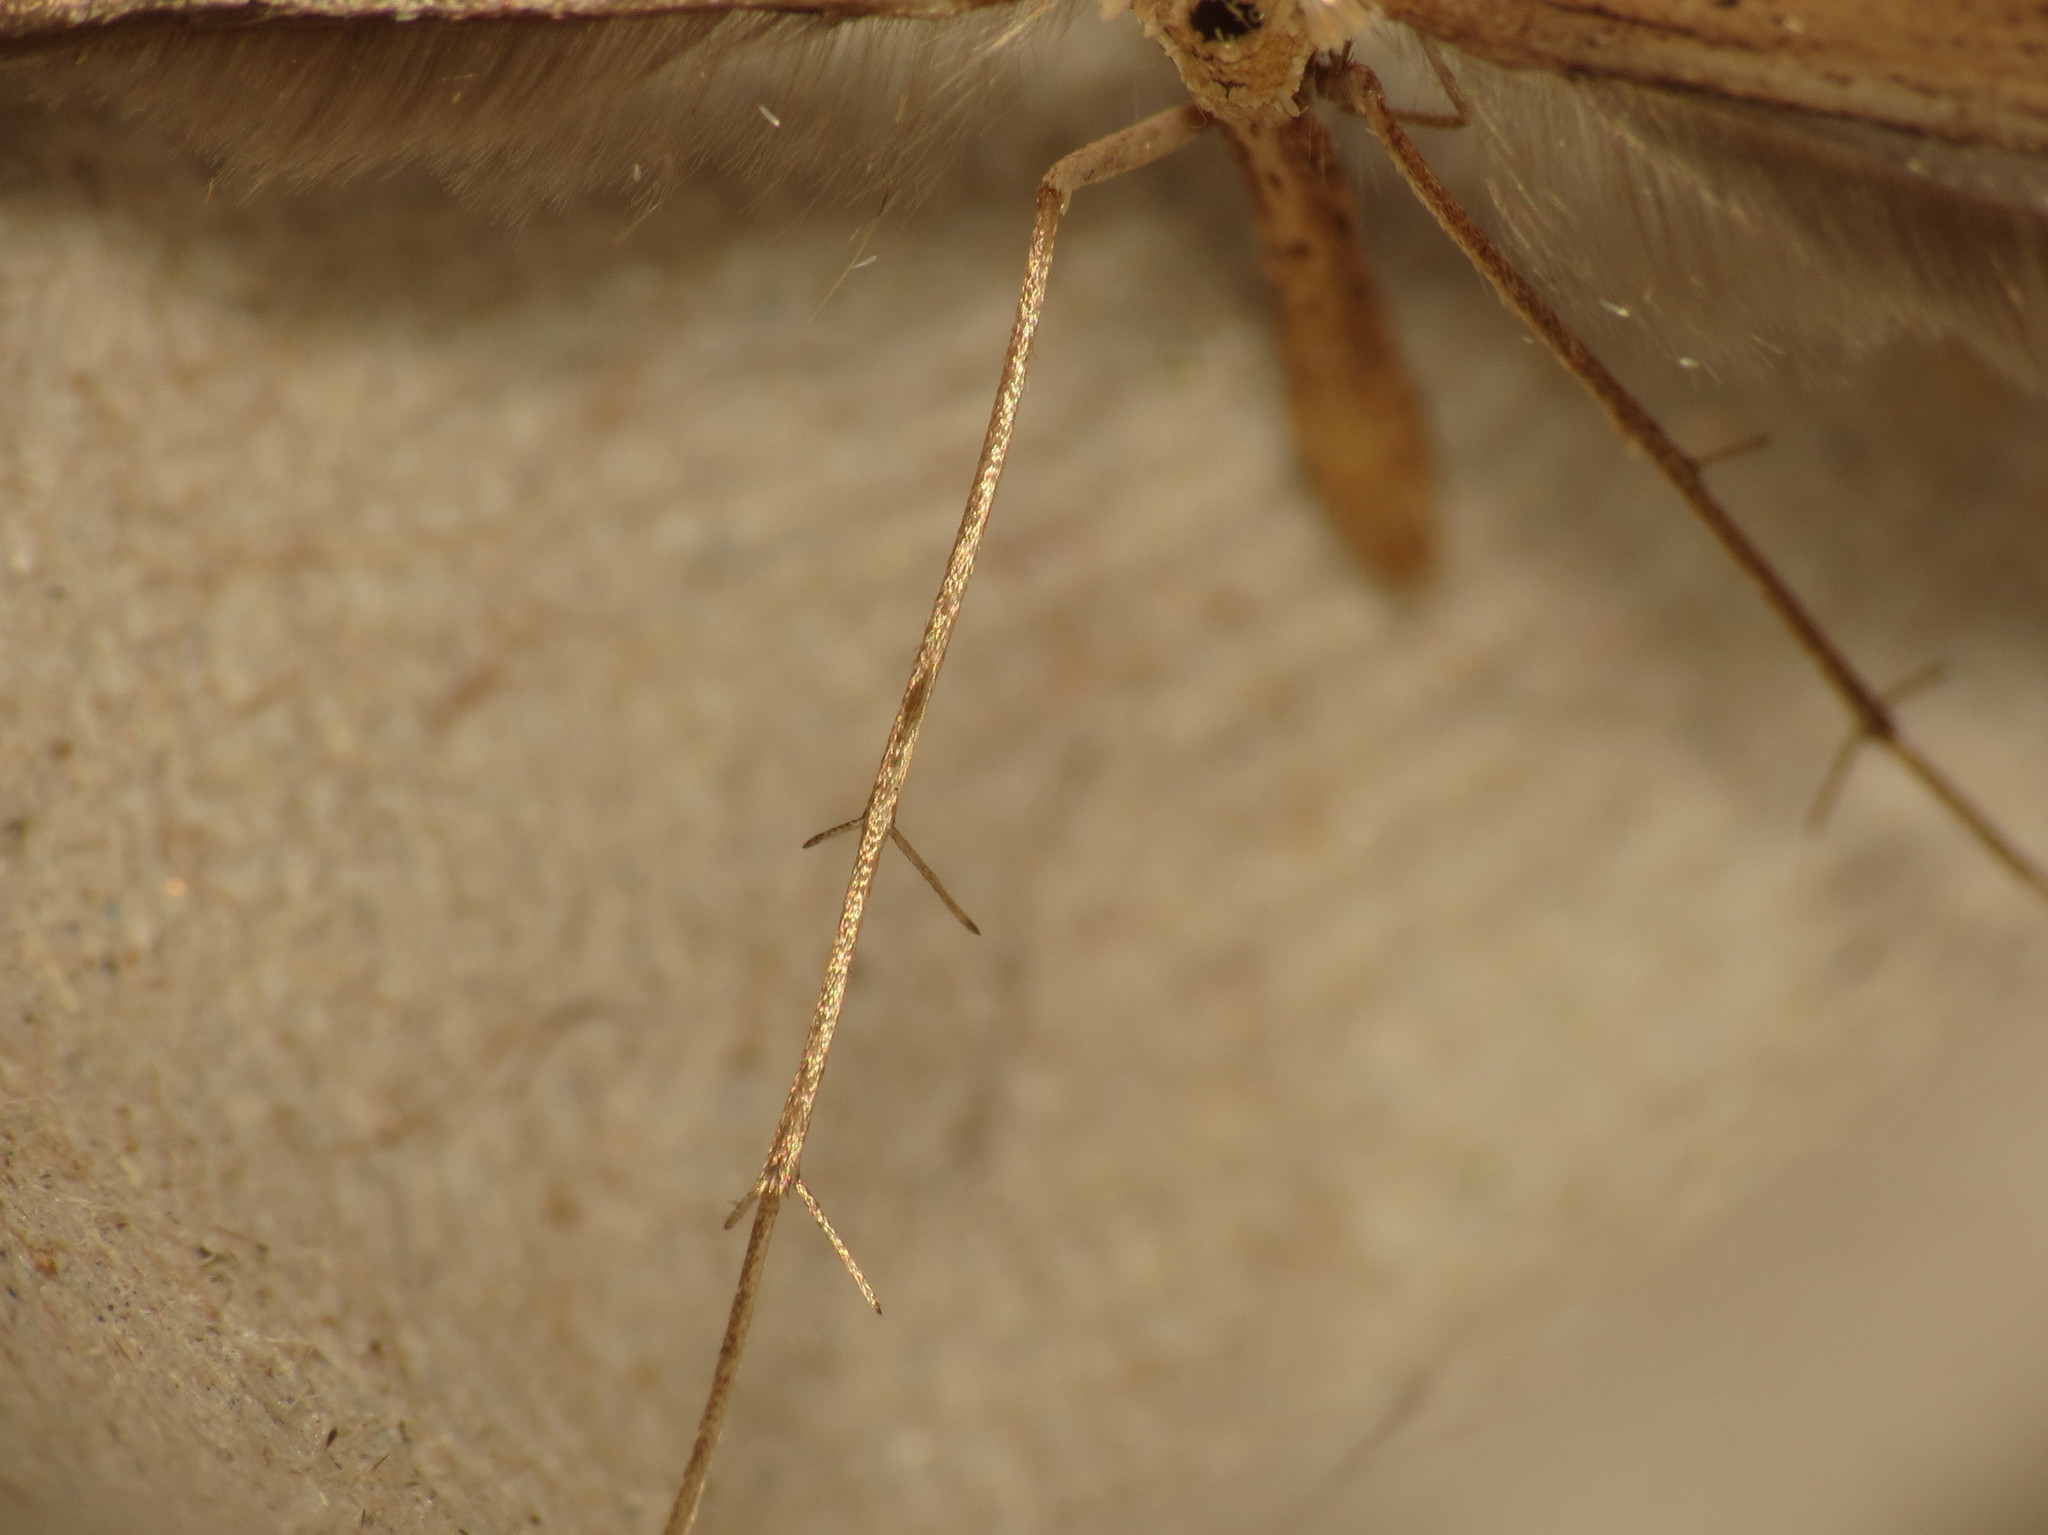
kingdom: Animalia
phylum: Arthropoda
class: Insecta
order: Lepidoptera
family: Pterophoridae
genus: Emmelina
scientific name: Emmelina monodactyla
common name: Common plume
